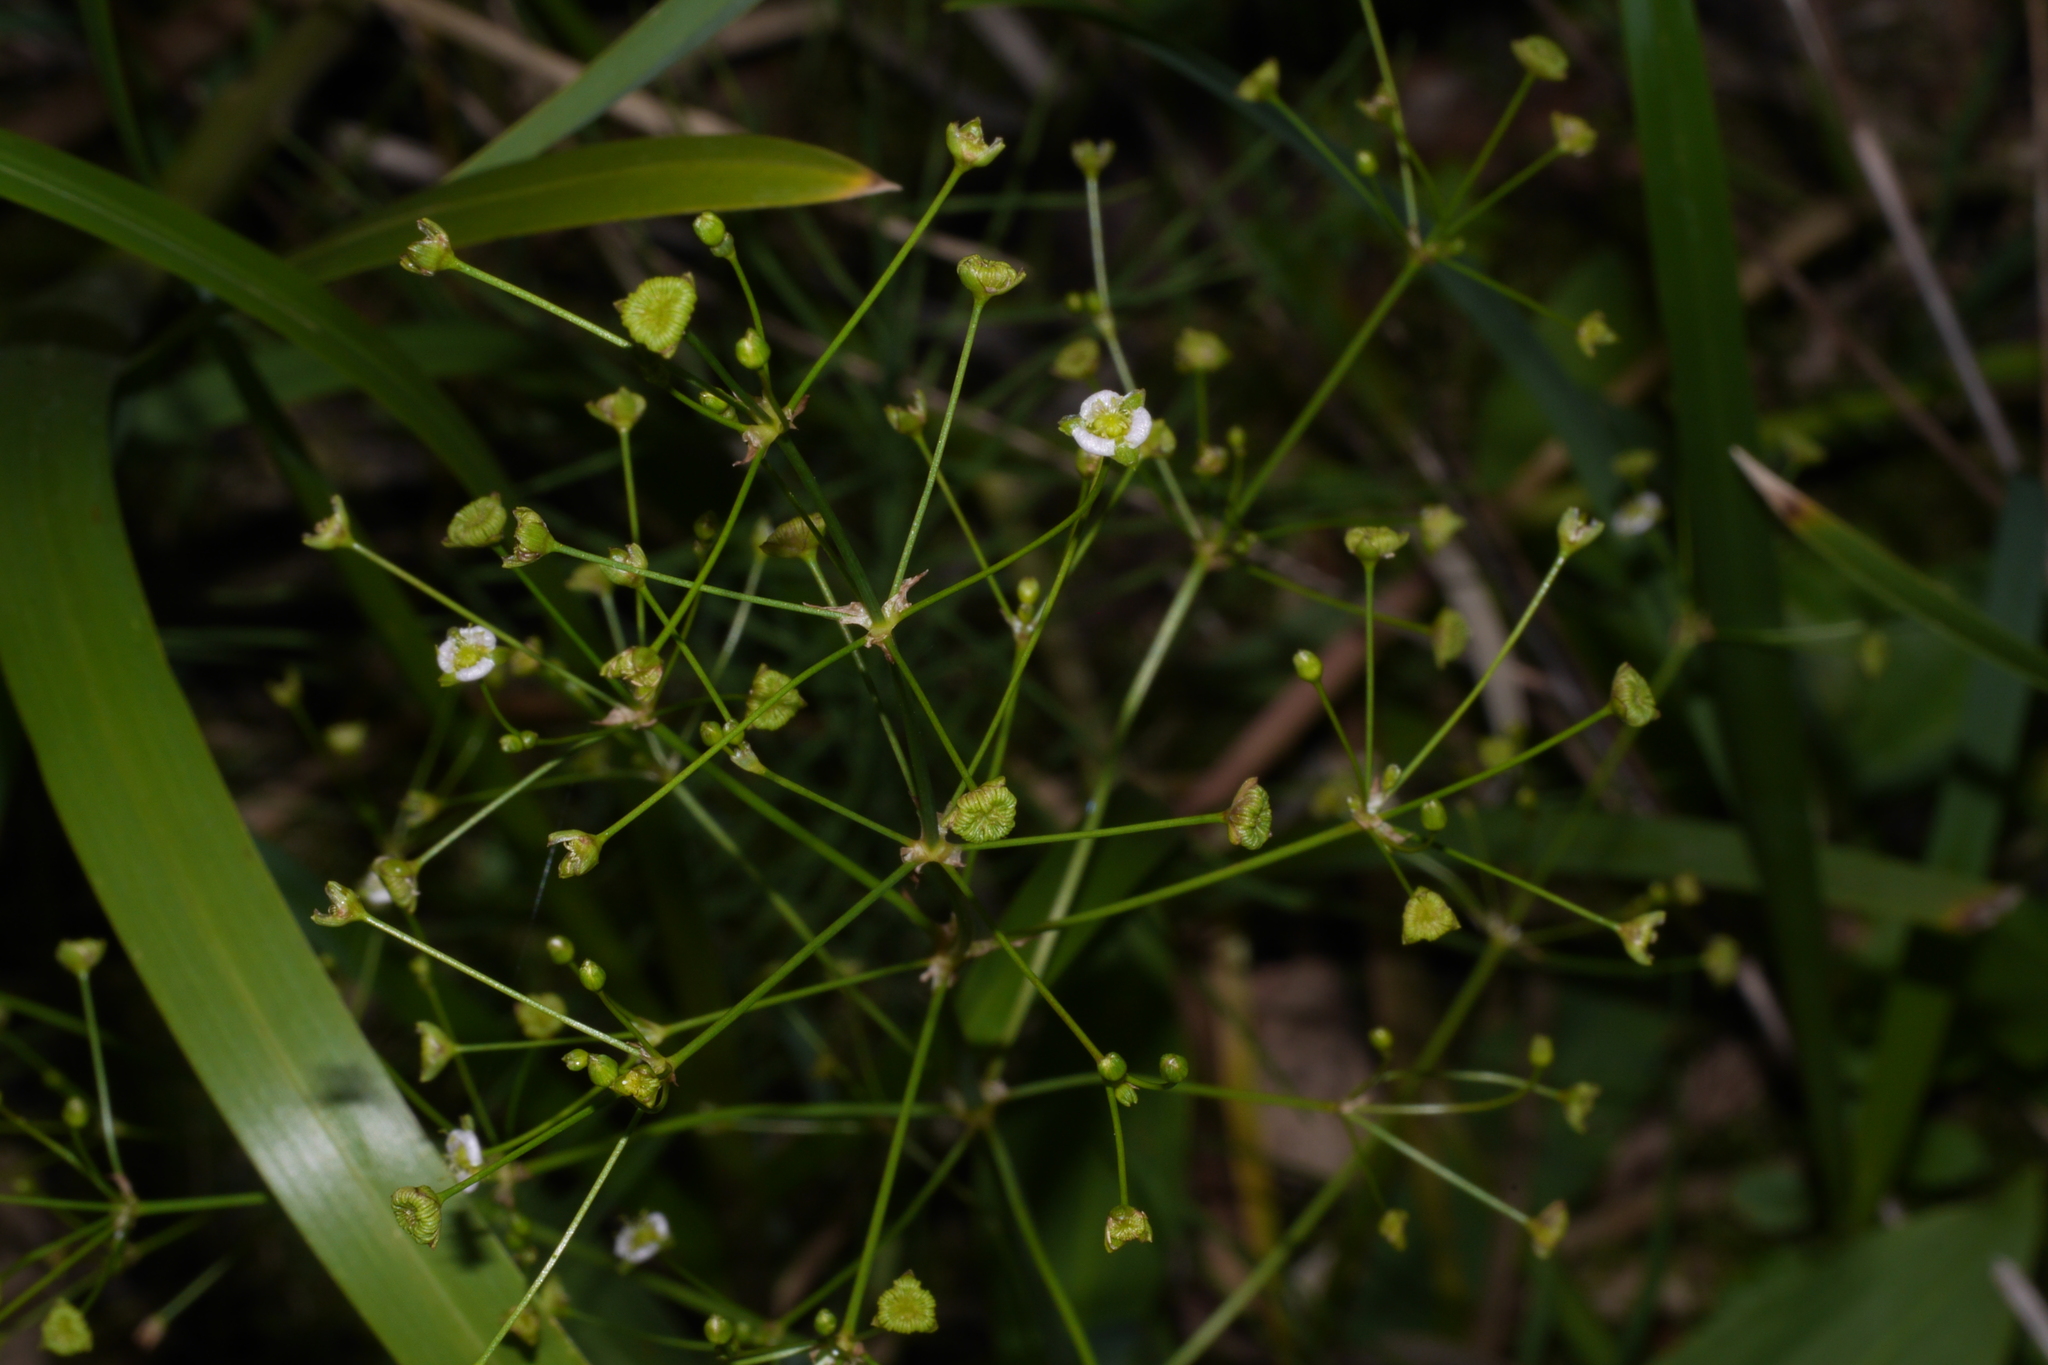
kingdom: Plantae
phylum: Tracheophyta
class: Liliopsida
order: Alismatales
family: Alismataceae
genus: Alisma
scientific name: Alisma plantago-aquatica
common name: Water-plantain
